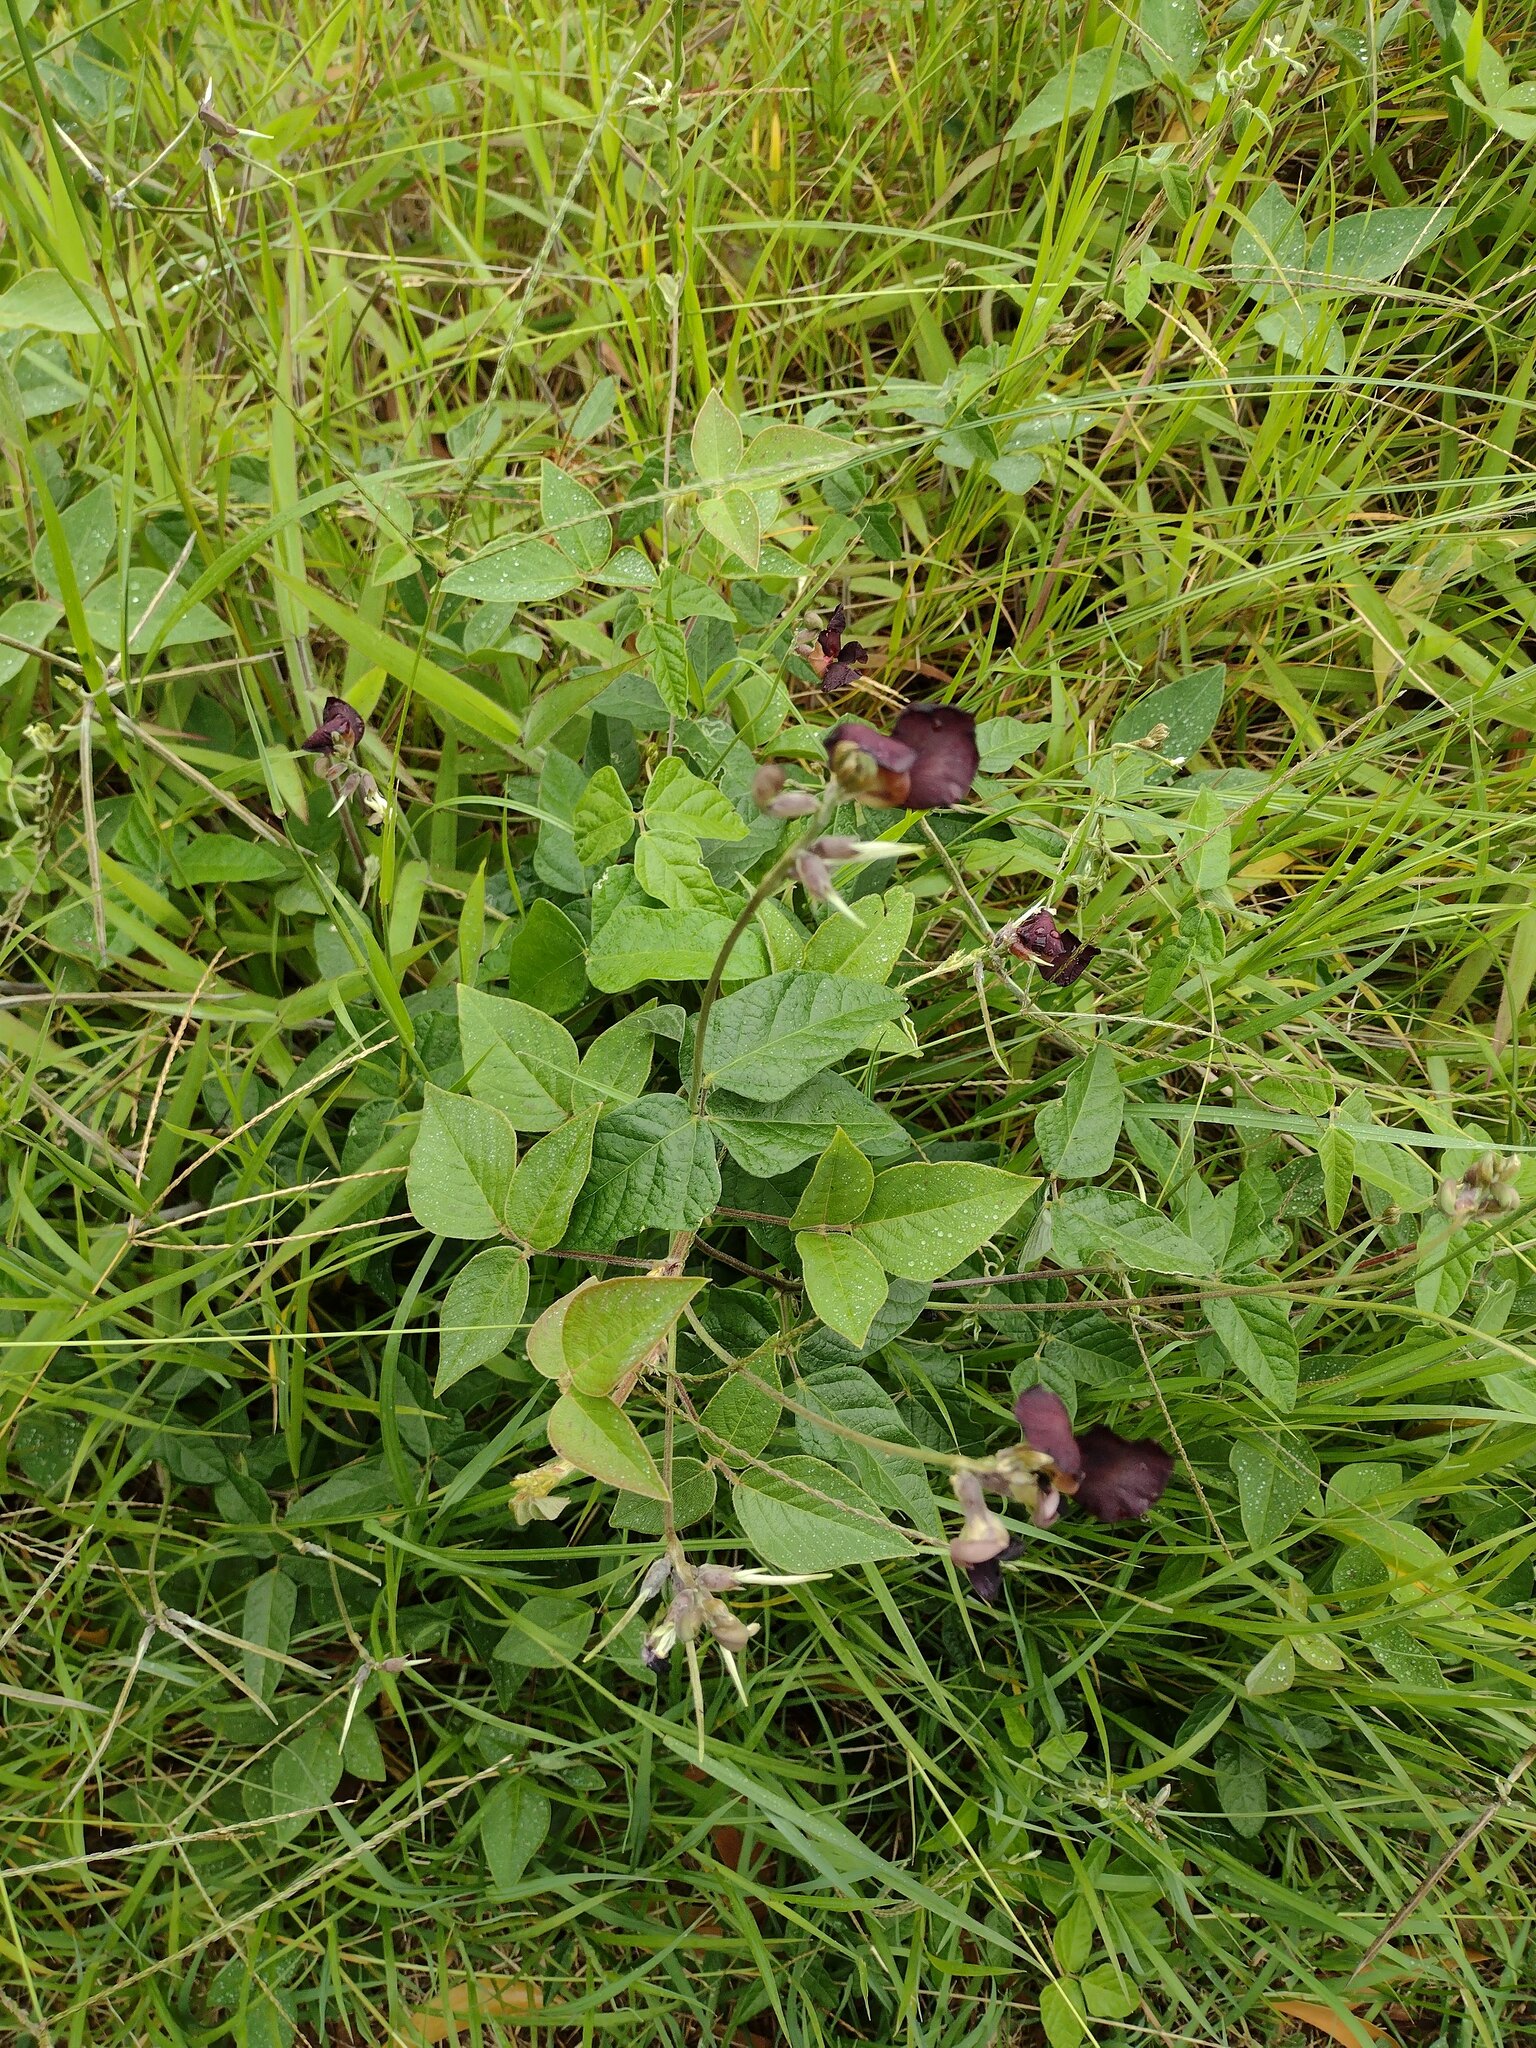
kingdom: Plantae
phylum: Tracheophyta
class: Magnoliopsida
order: Fabales
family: Fabaceae
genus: Macroptilium
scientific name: Macroptilium atropurpureum
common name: Purple bushbean
